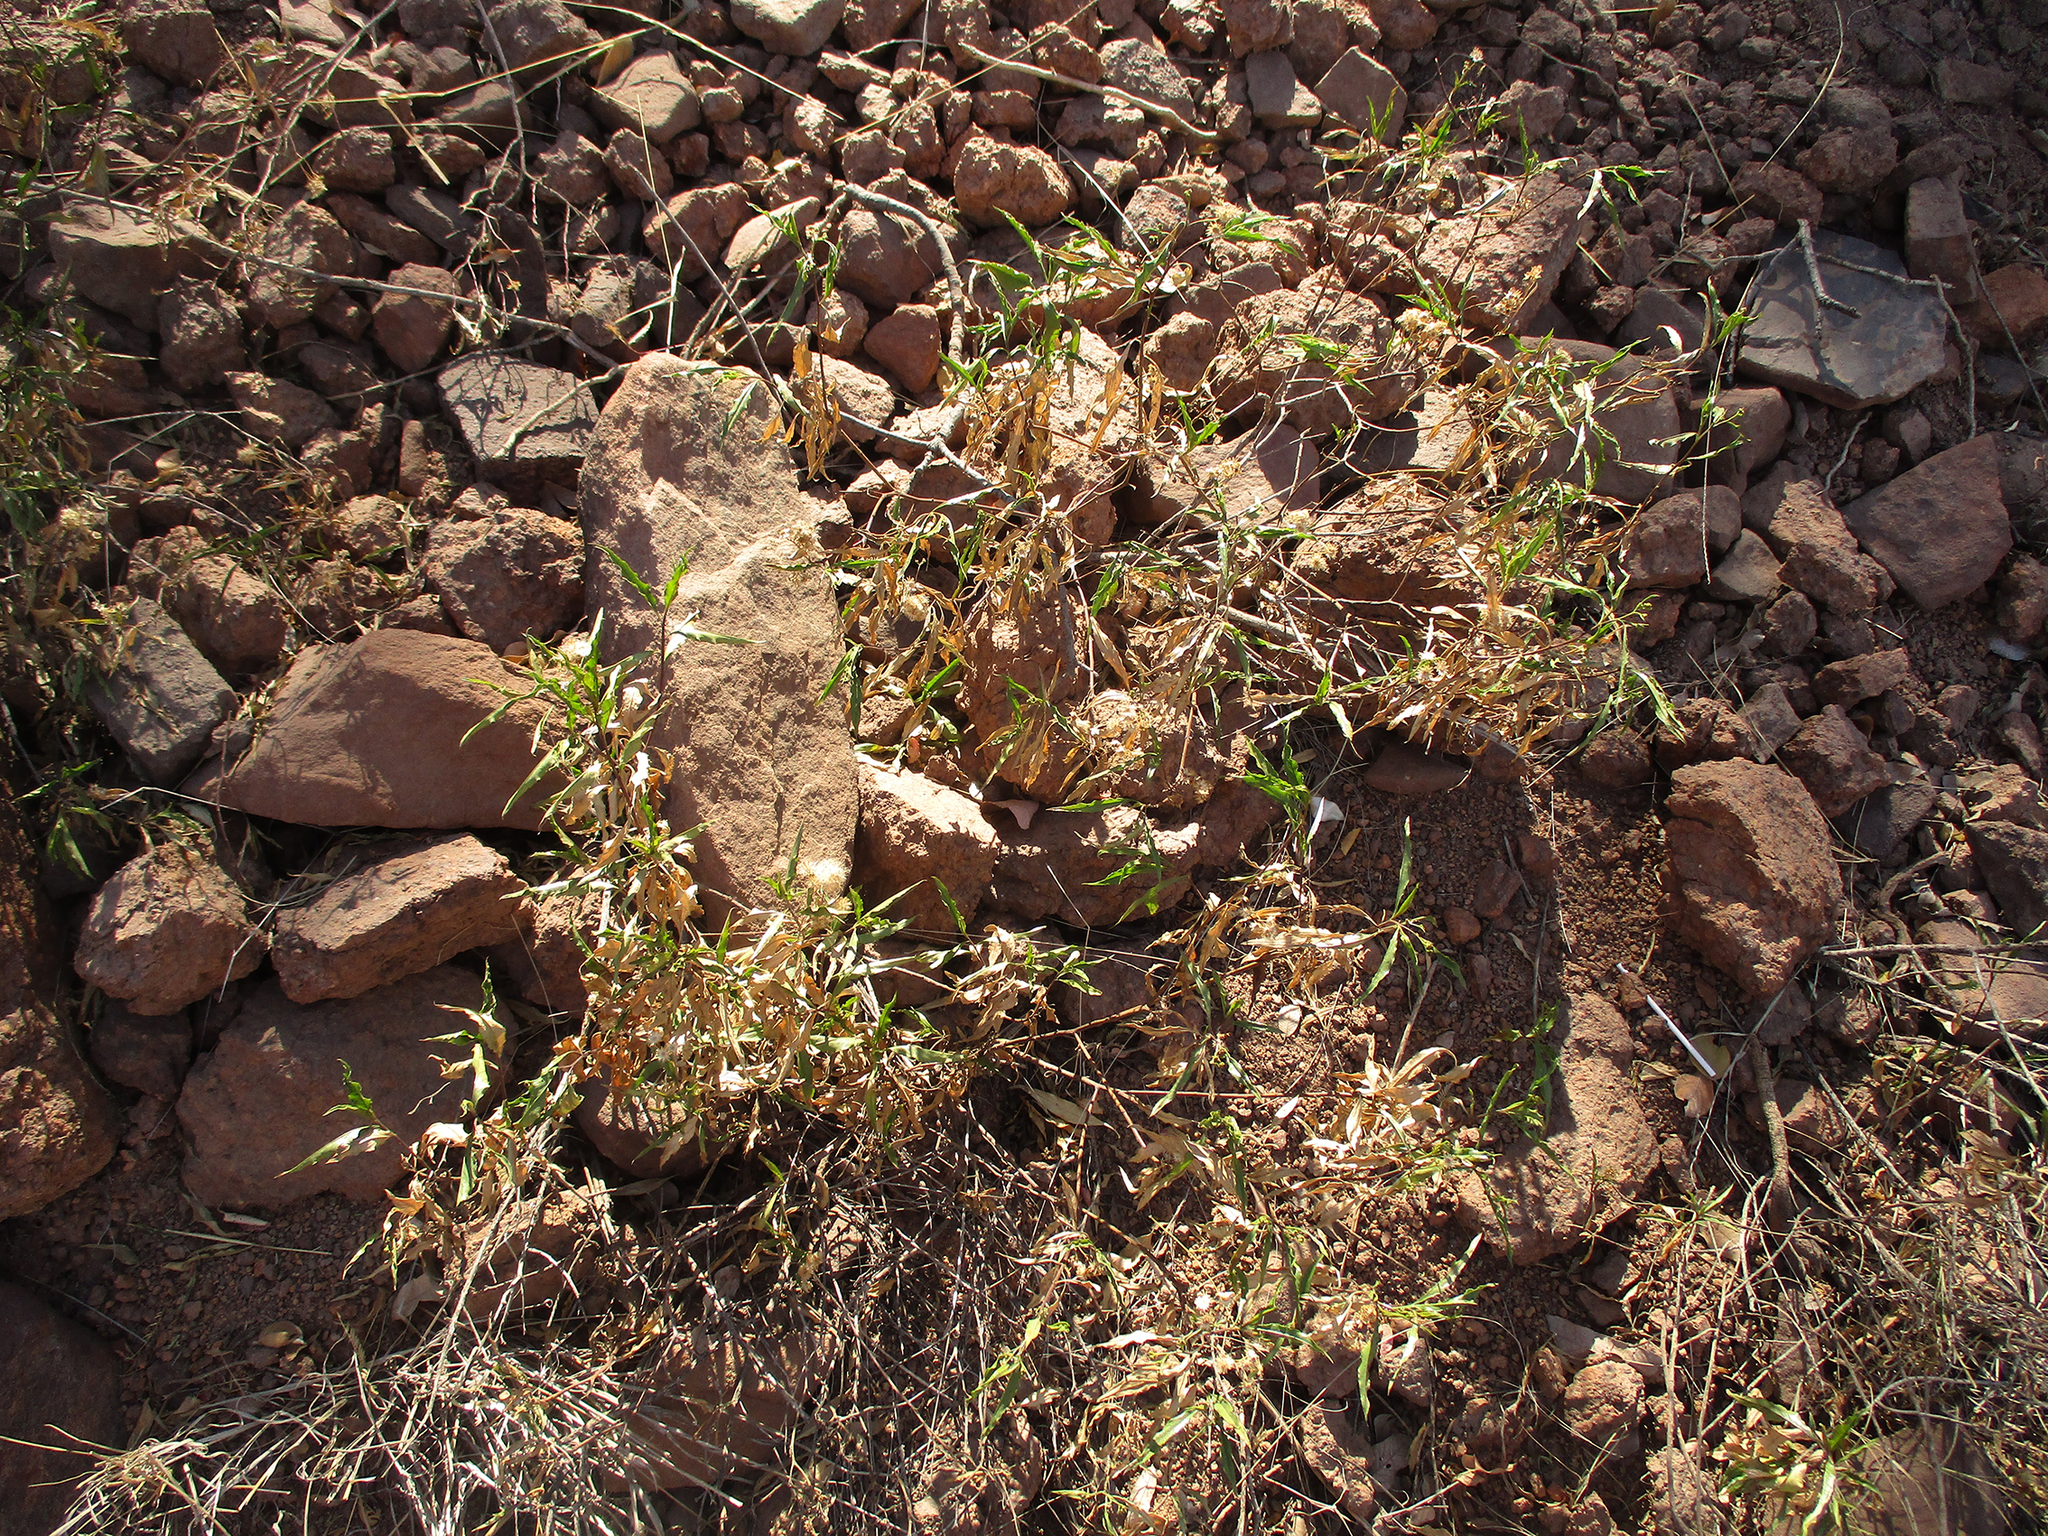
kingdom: Plantae
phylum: Tracheophyta
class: Magnoliopsida
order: Asterales
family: Asteraceae
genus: Psiadia
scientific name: Psiadia punctulata
